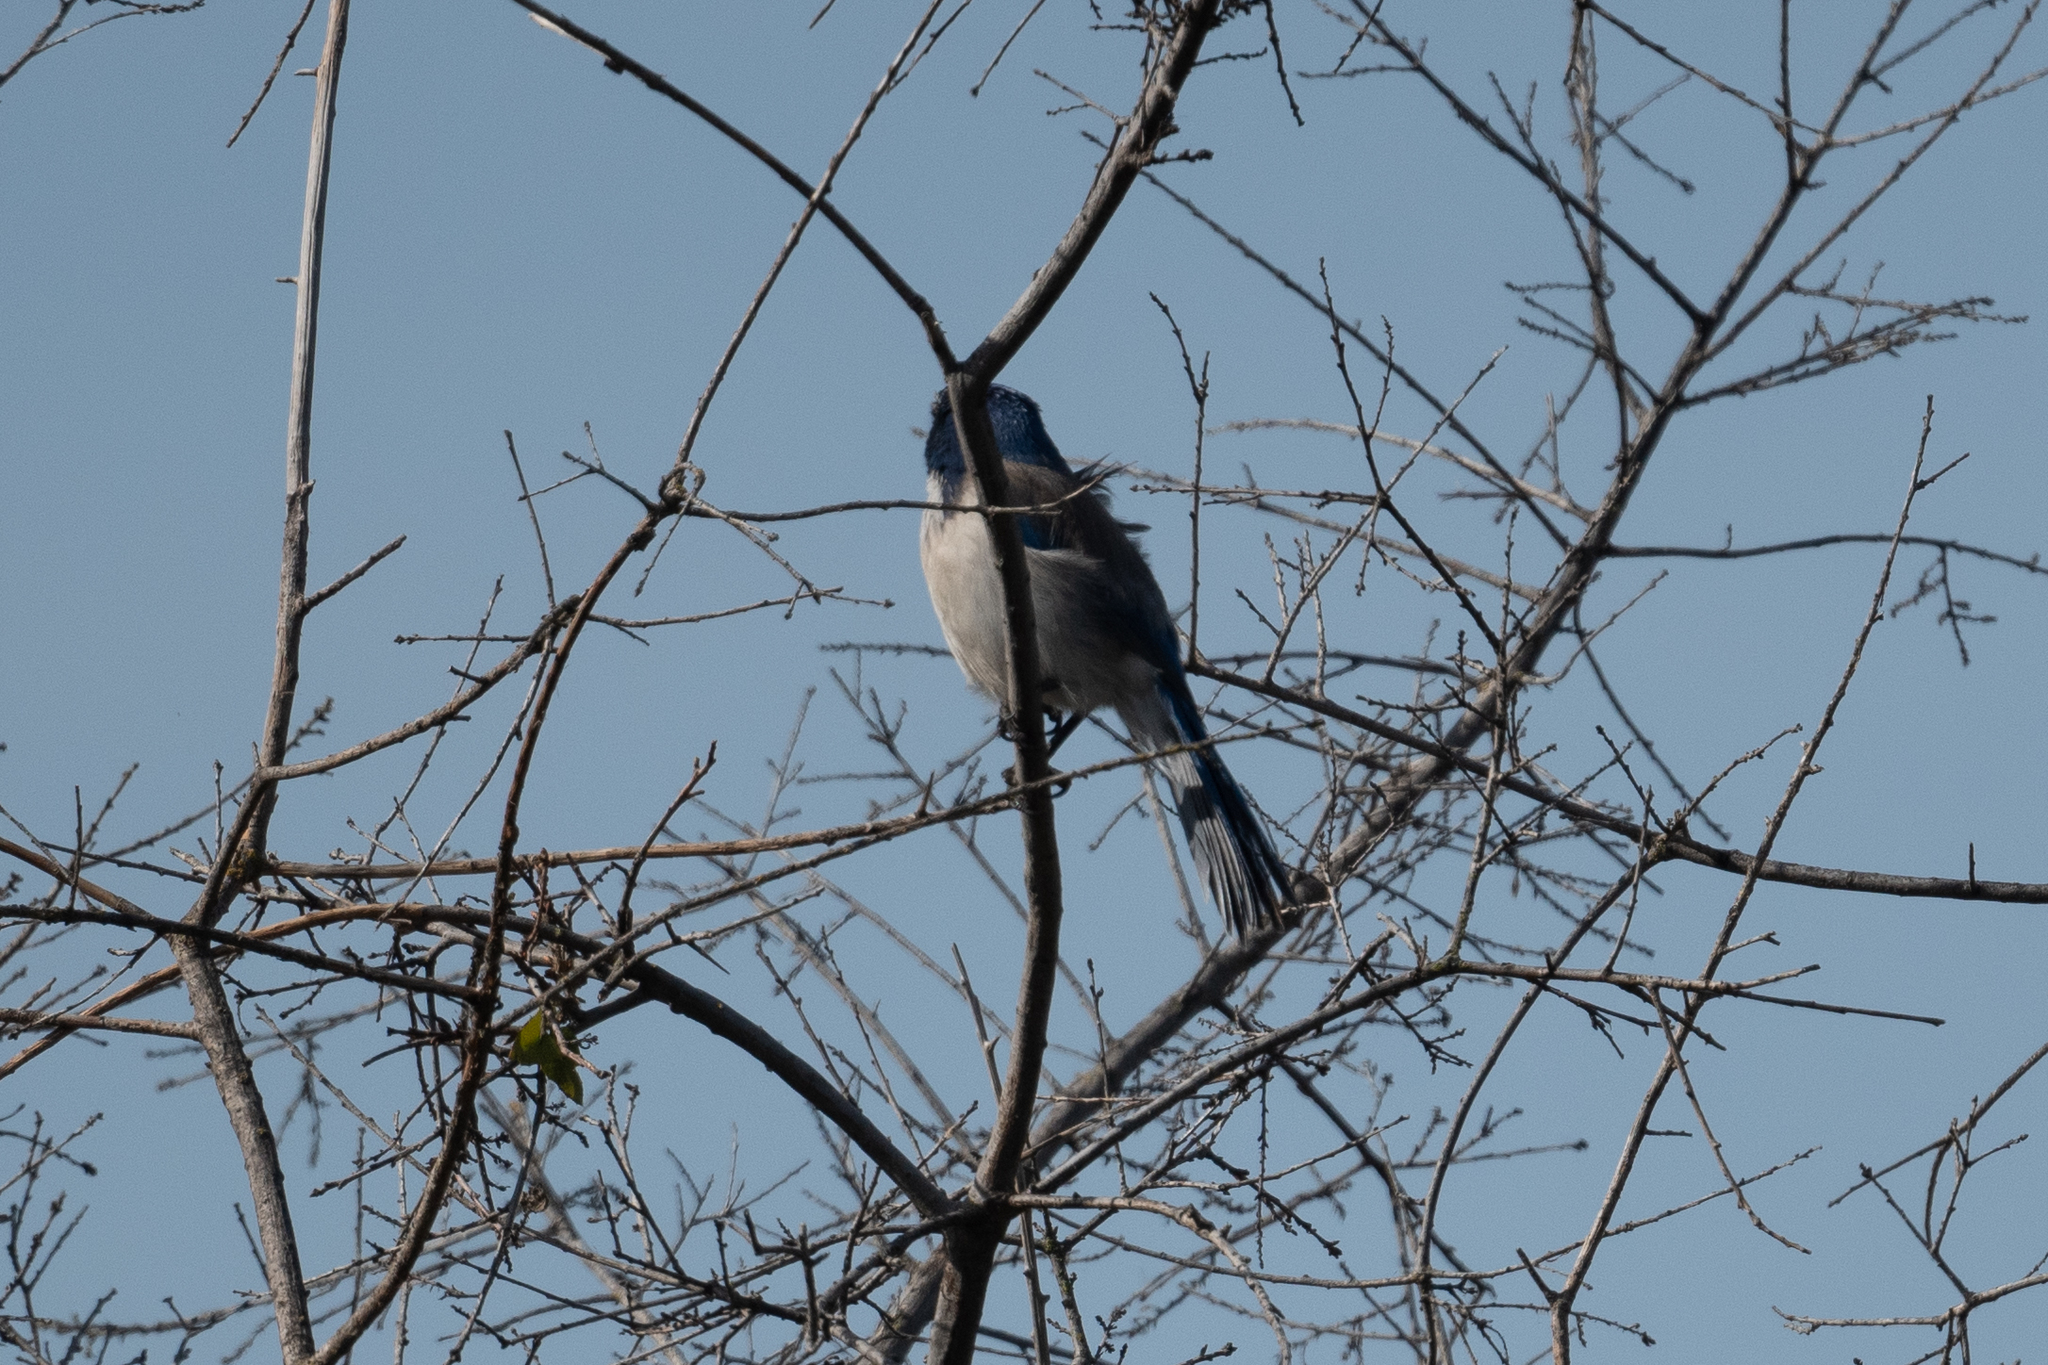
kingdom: Animalia
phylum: Chordata
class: Aves
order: Passeriformes
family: Corvidae
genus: Aphelocoma
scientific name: Aphelocoma californica
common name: California scrub-jay
